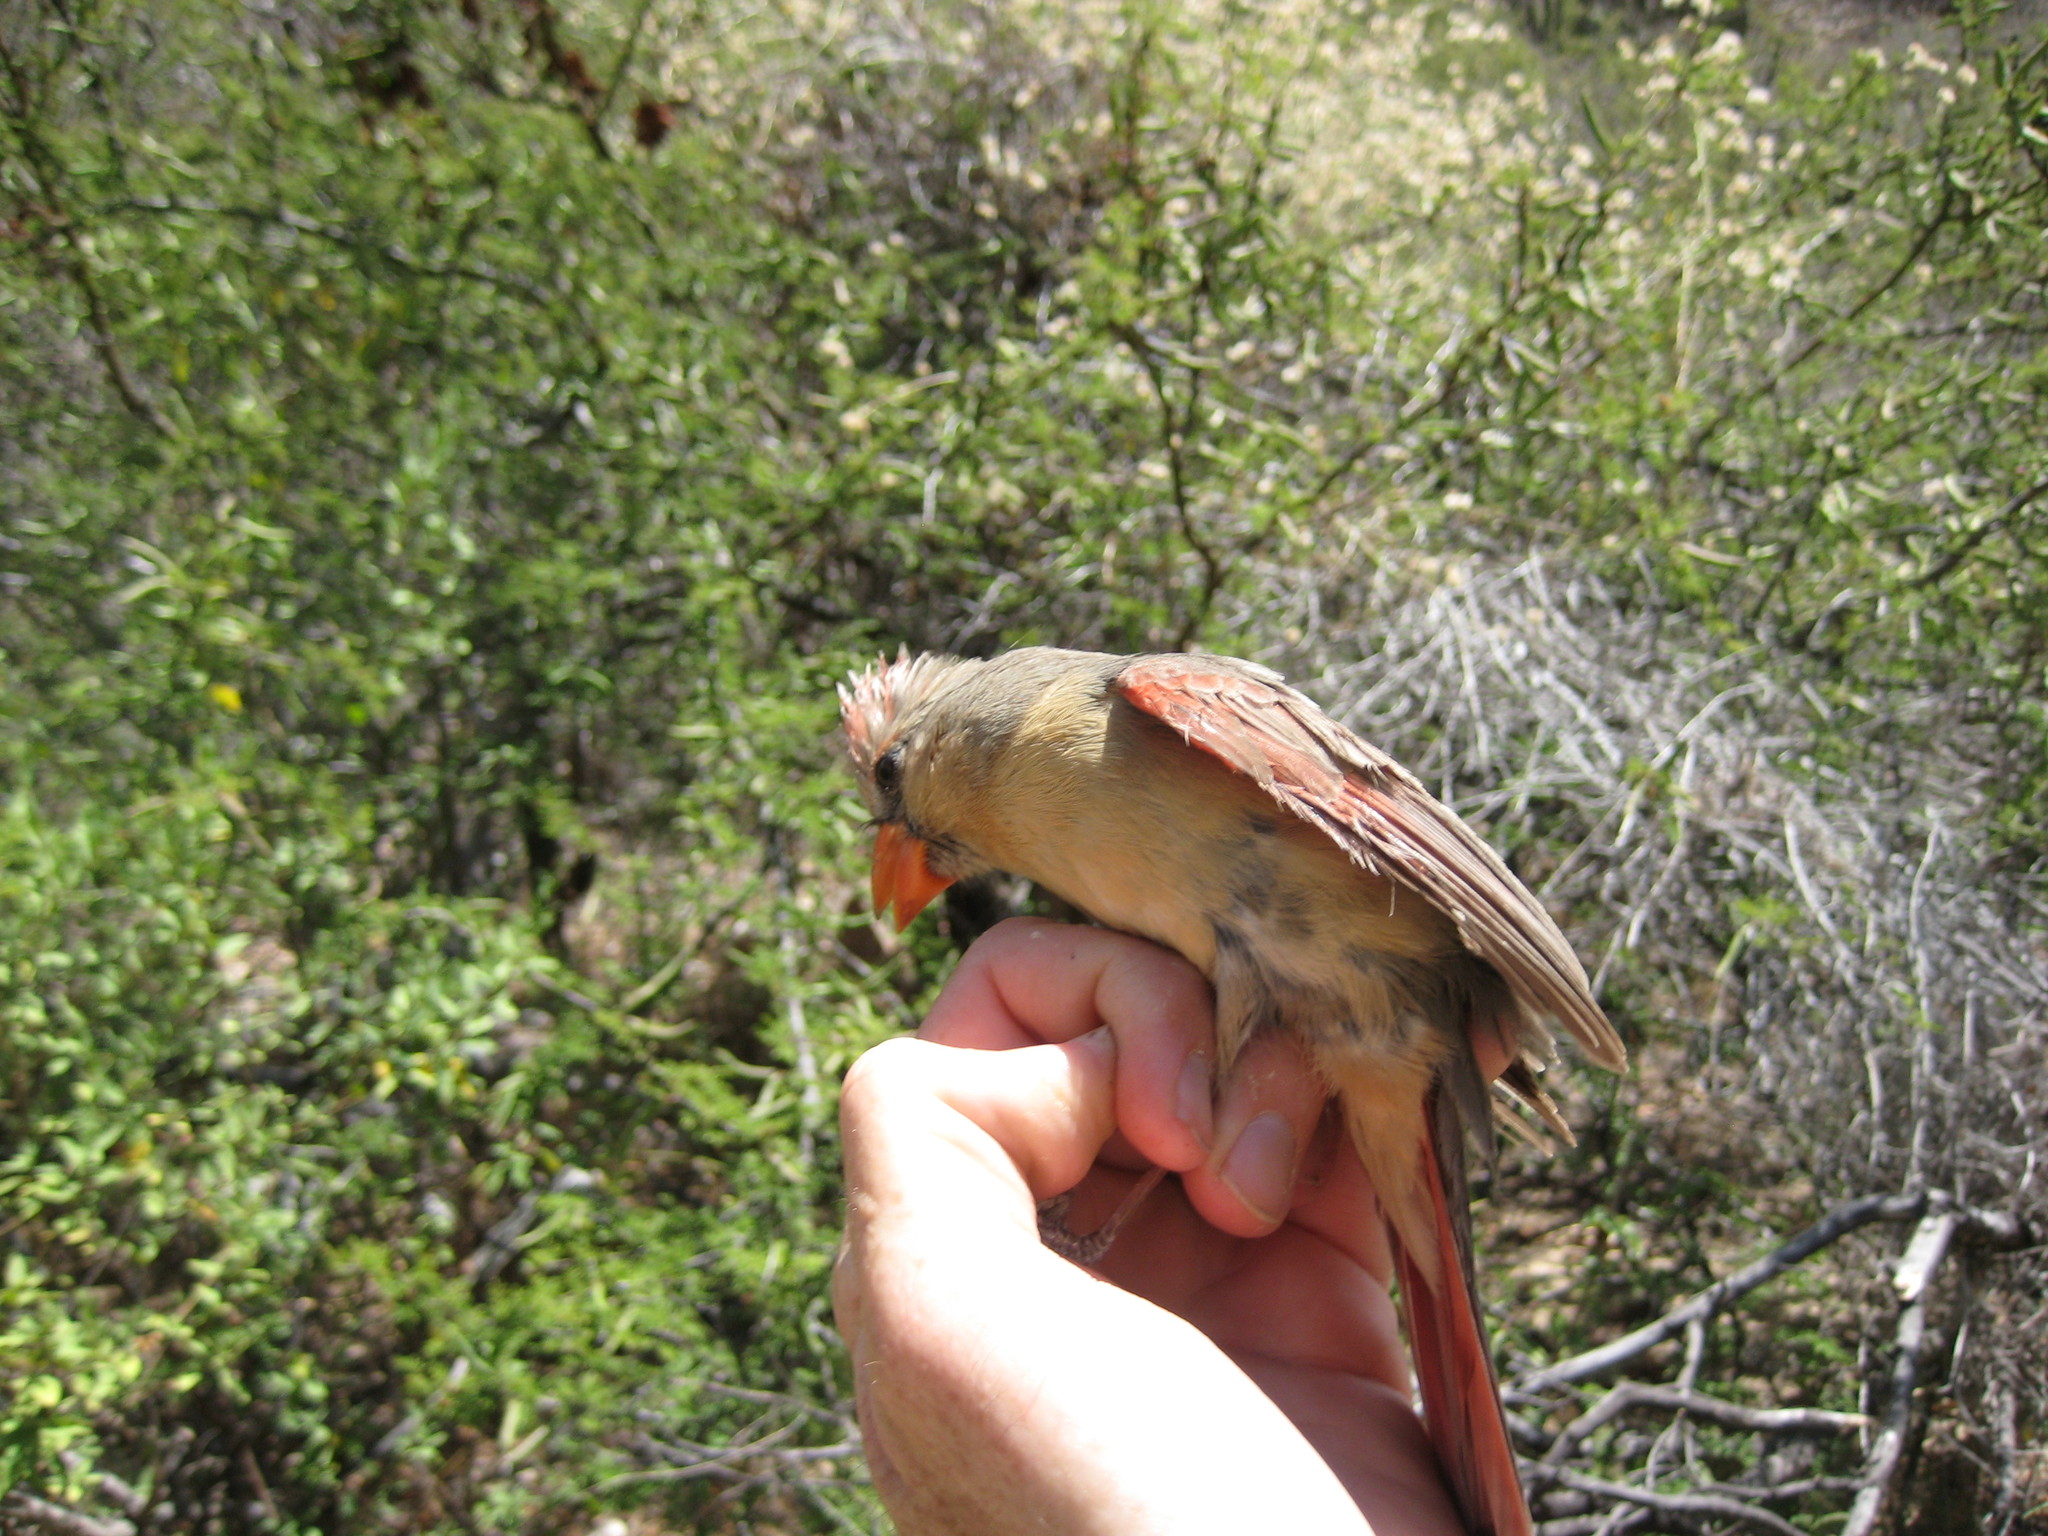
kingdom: Animalia
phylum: Chordata
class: Aves
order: Passeriformes
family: Cardinalidae
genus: Cardinalis
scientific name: Cardinalis cardinalis
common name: Northern cardinal
